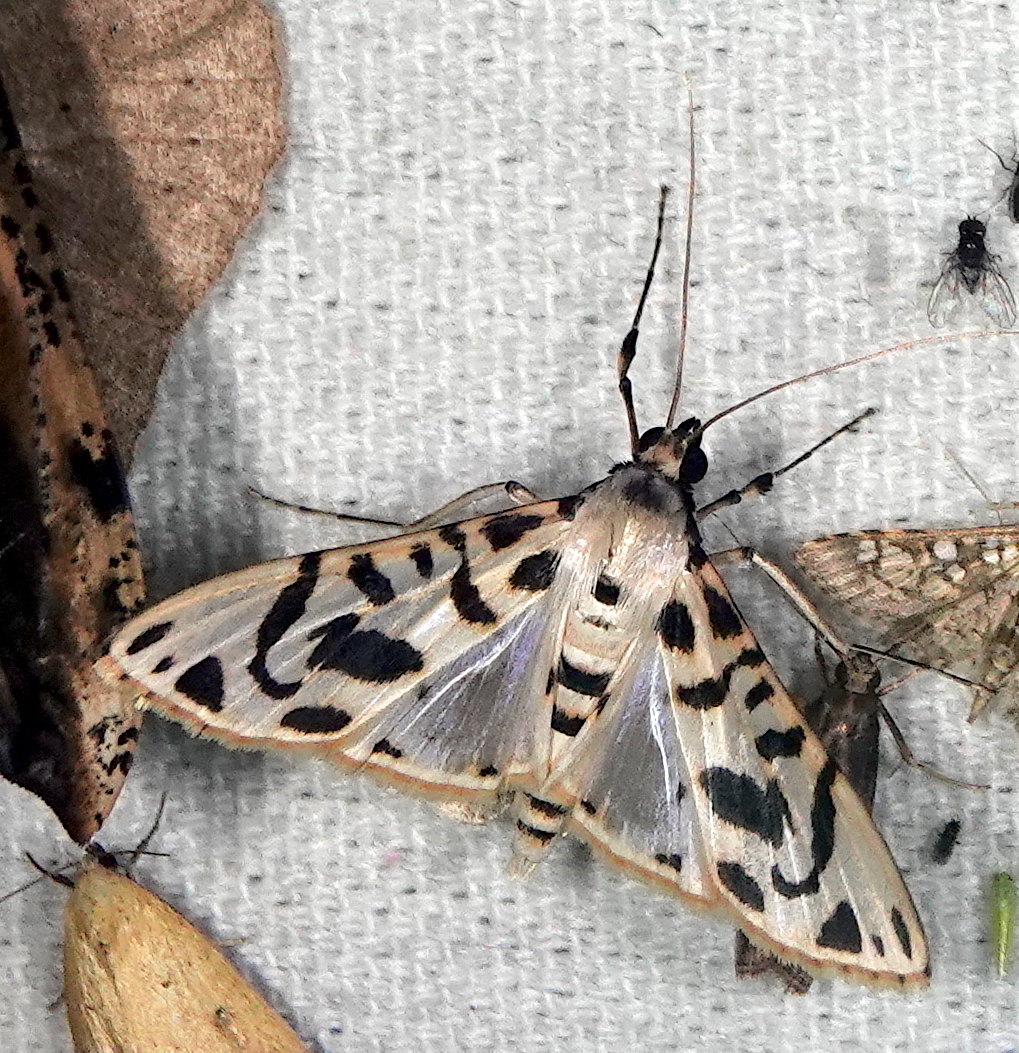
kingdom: Animalia
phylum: Arthropoda
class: Insecta
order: Lepidoptera
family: Crambidae
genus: Azochis
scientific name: Azochis curvilinealis
